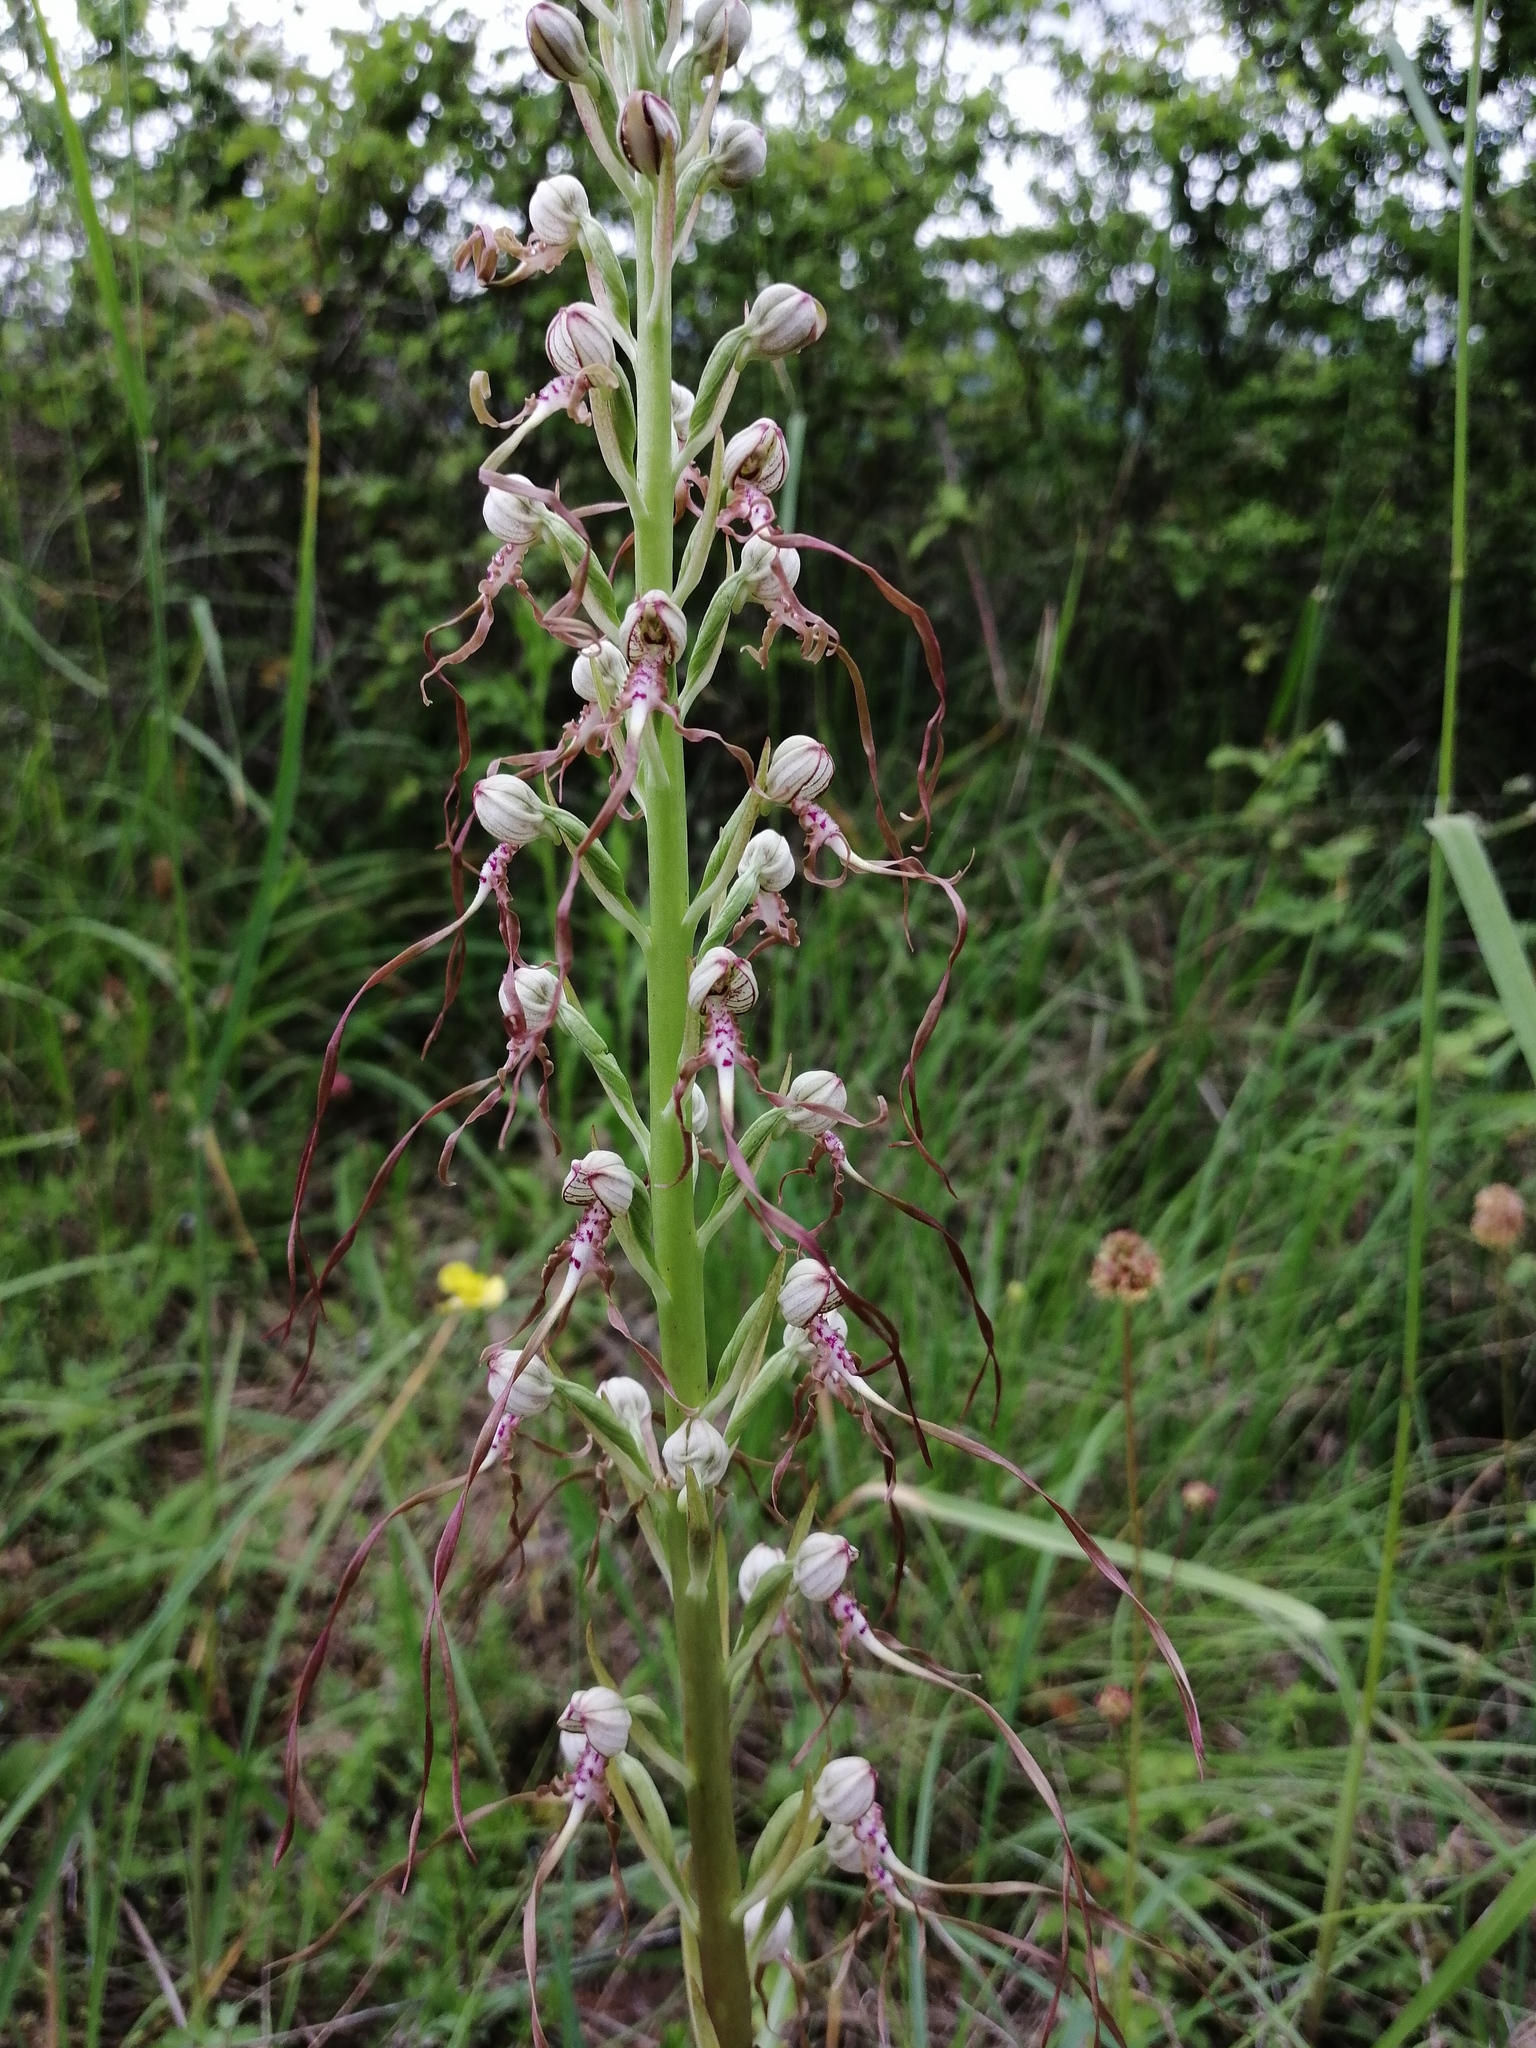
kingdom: Plantae
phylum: Tracheophyta
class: Liliopsida
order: Asparagales
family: Orchidaceae
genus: Himantoglossum
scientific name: Himantoglossum adriaticum
